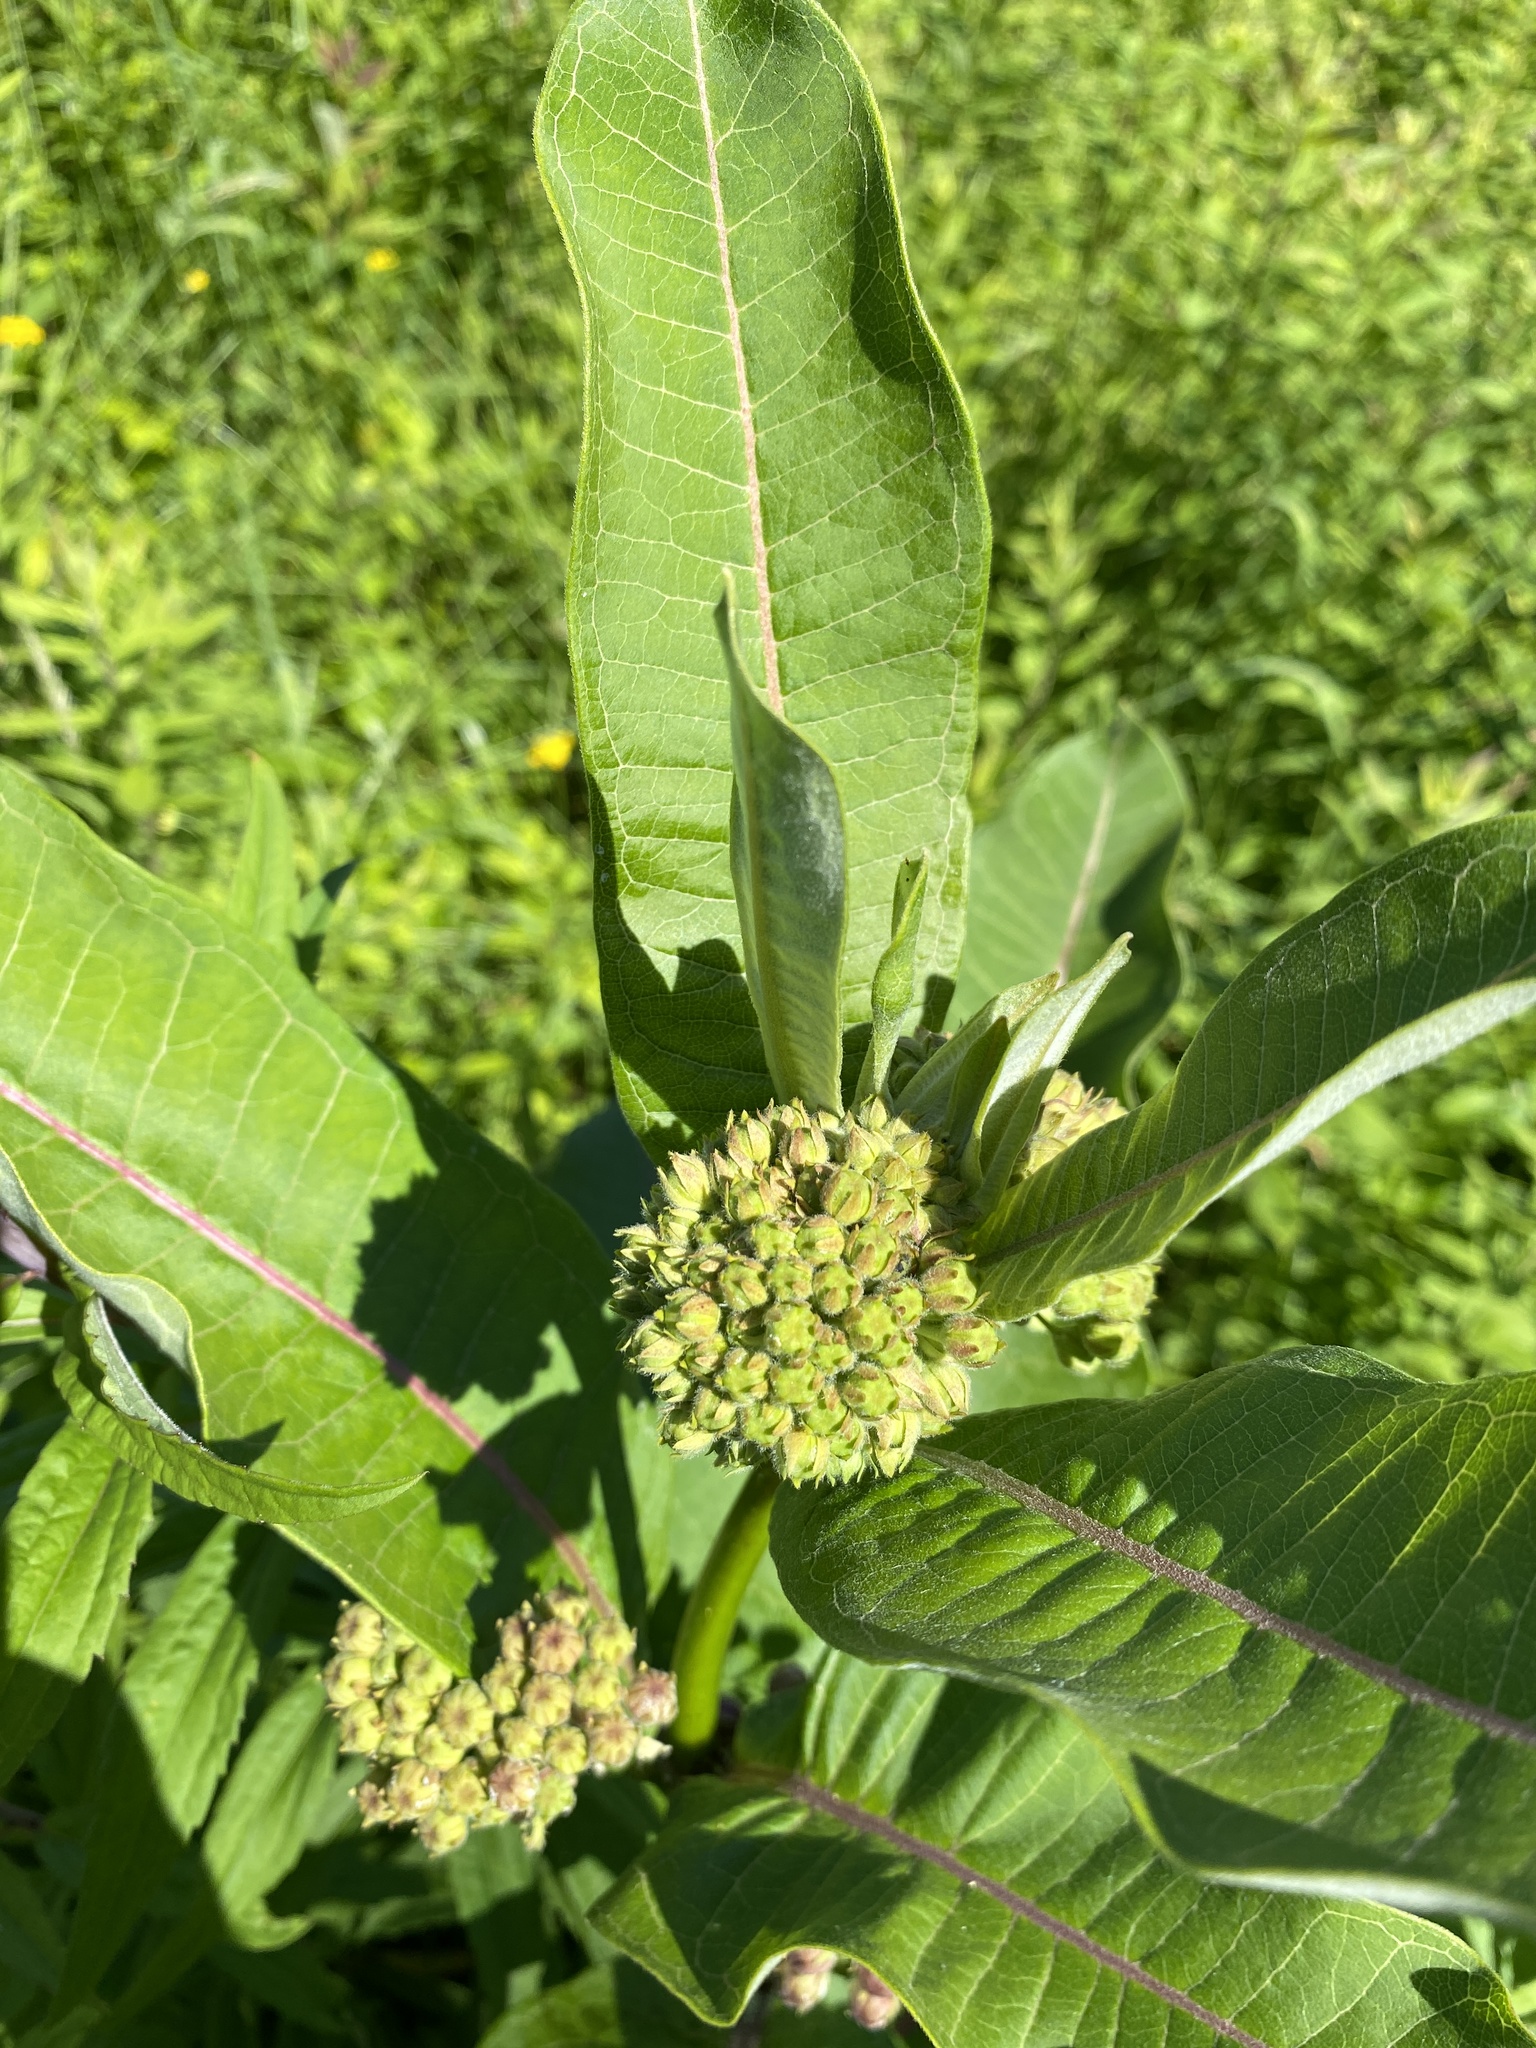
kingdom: Plantae
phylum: Tracheophyta
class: Magnoliopsida
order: Gentianales
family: Apocynaceae
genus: Asclepias
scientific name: Asclepias syriaca
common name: Common milkweed
